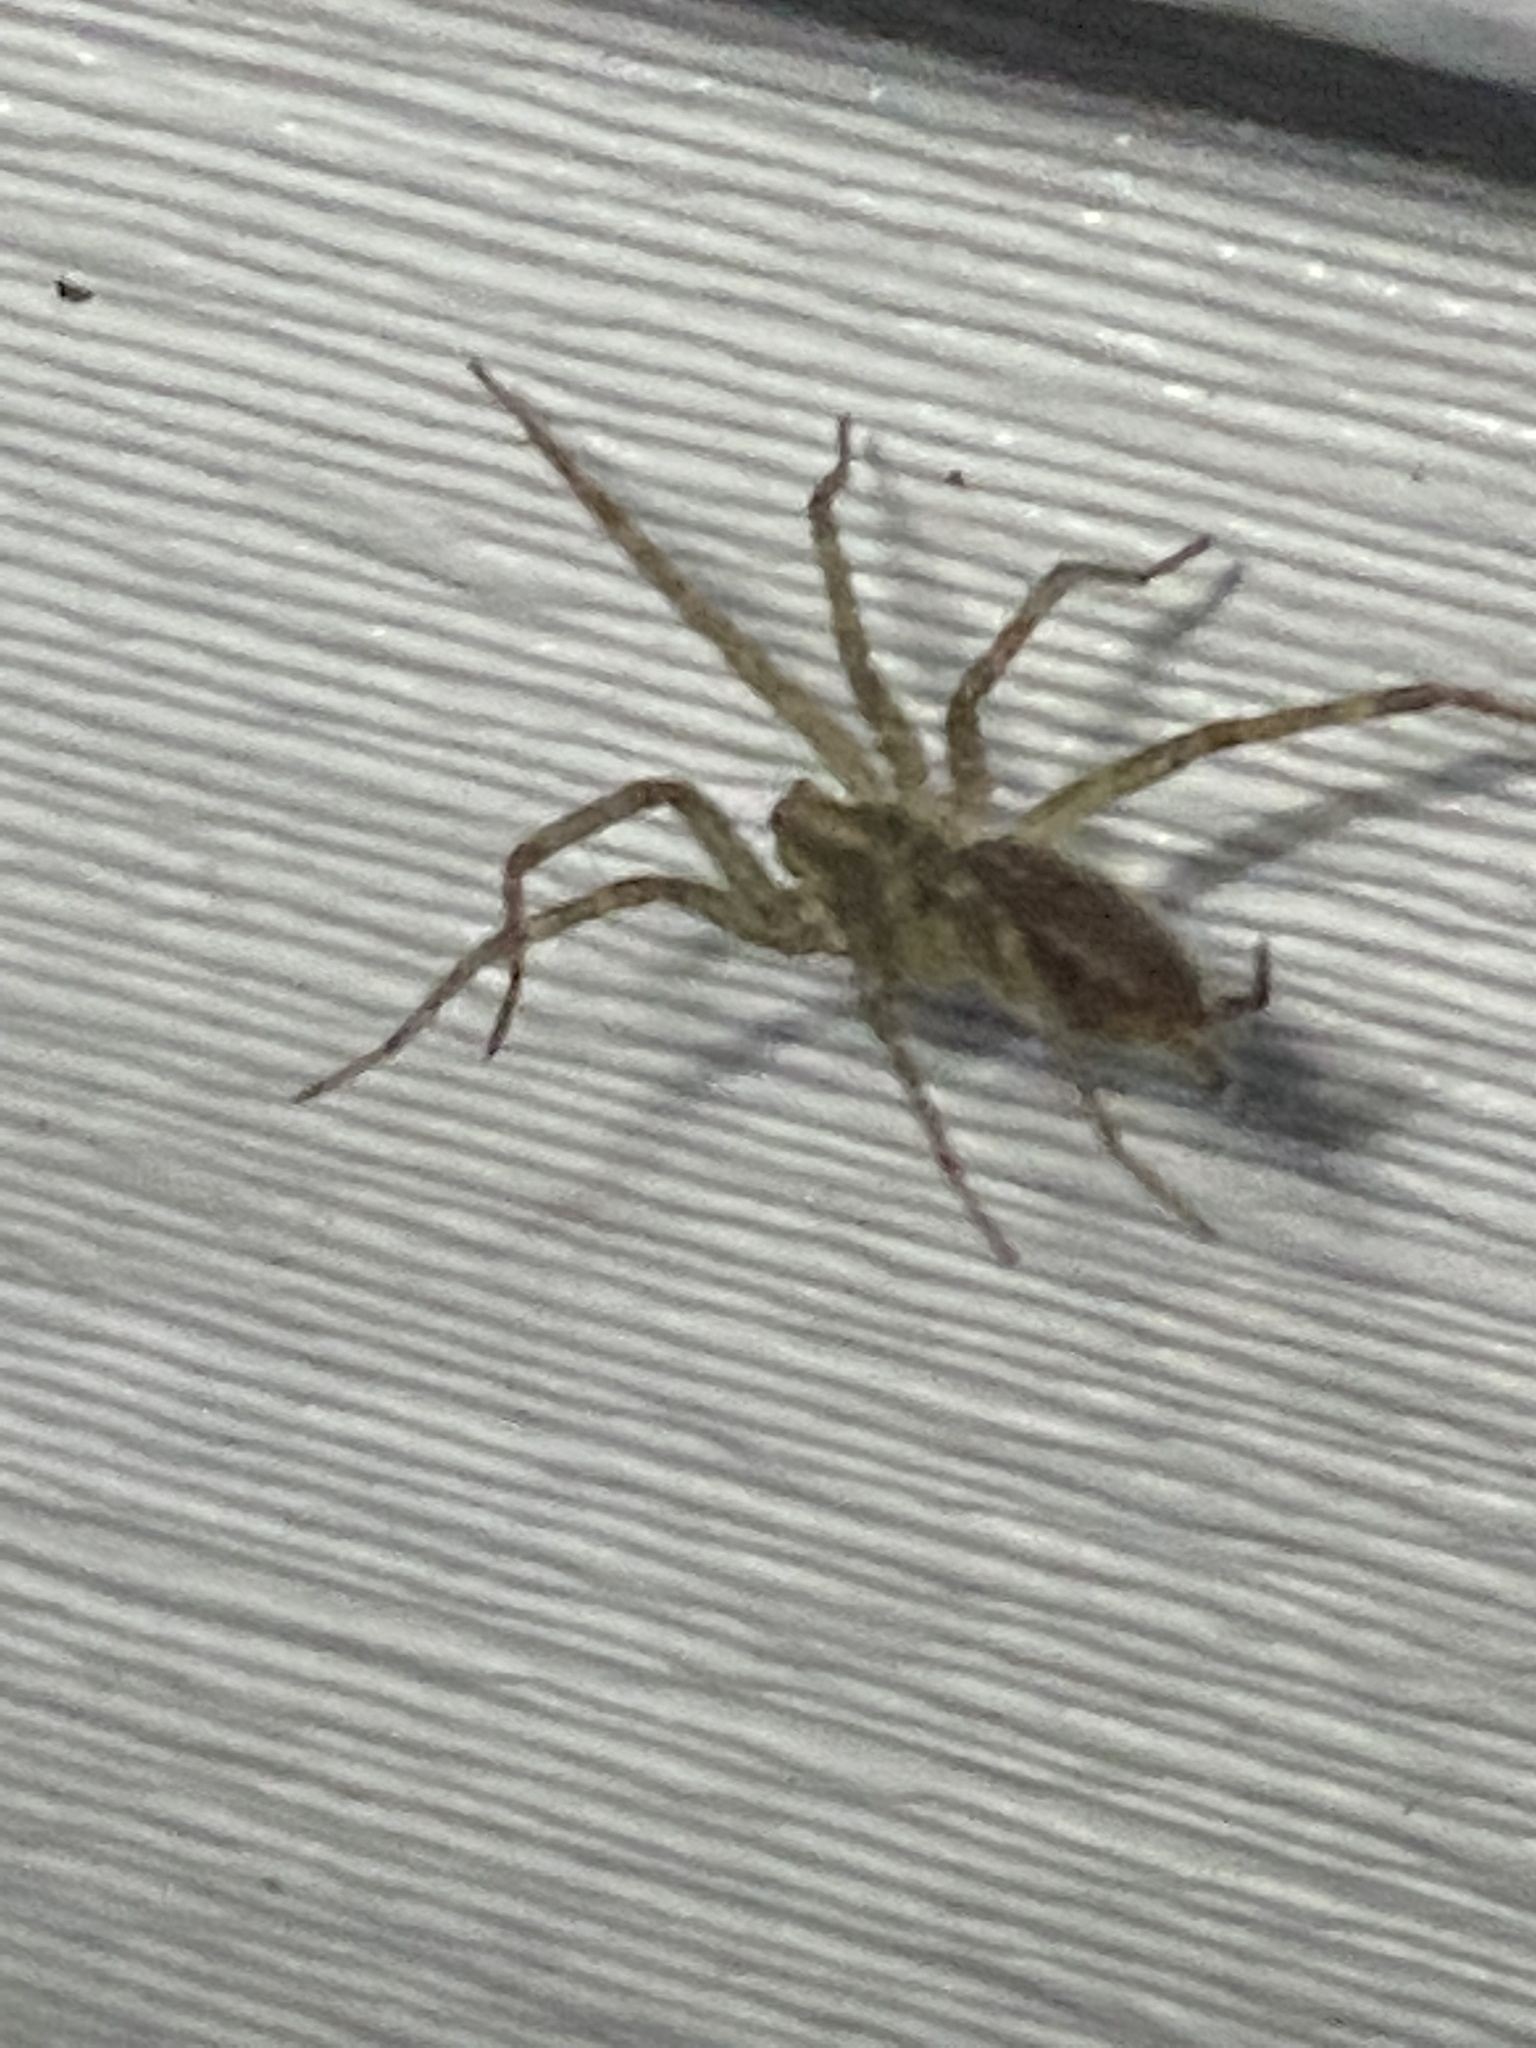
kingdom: Animalia
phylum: Arthropoda
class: Arachnida
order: Araneae
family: Agelenidae
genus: Agelenopsis
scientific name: Agelenopsis
